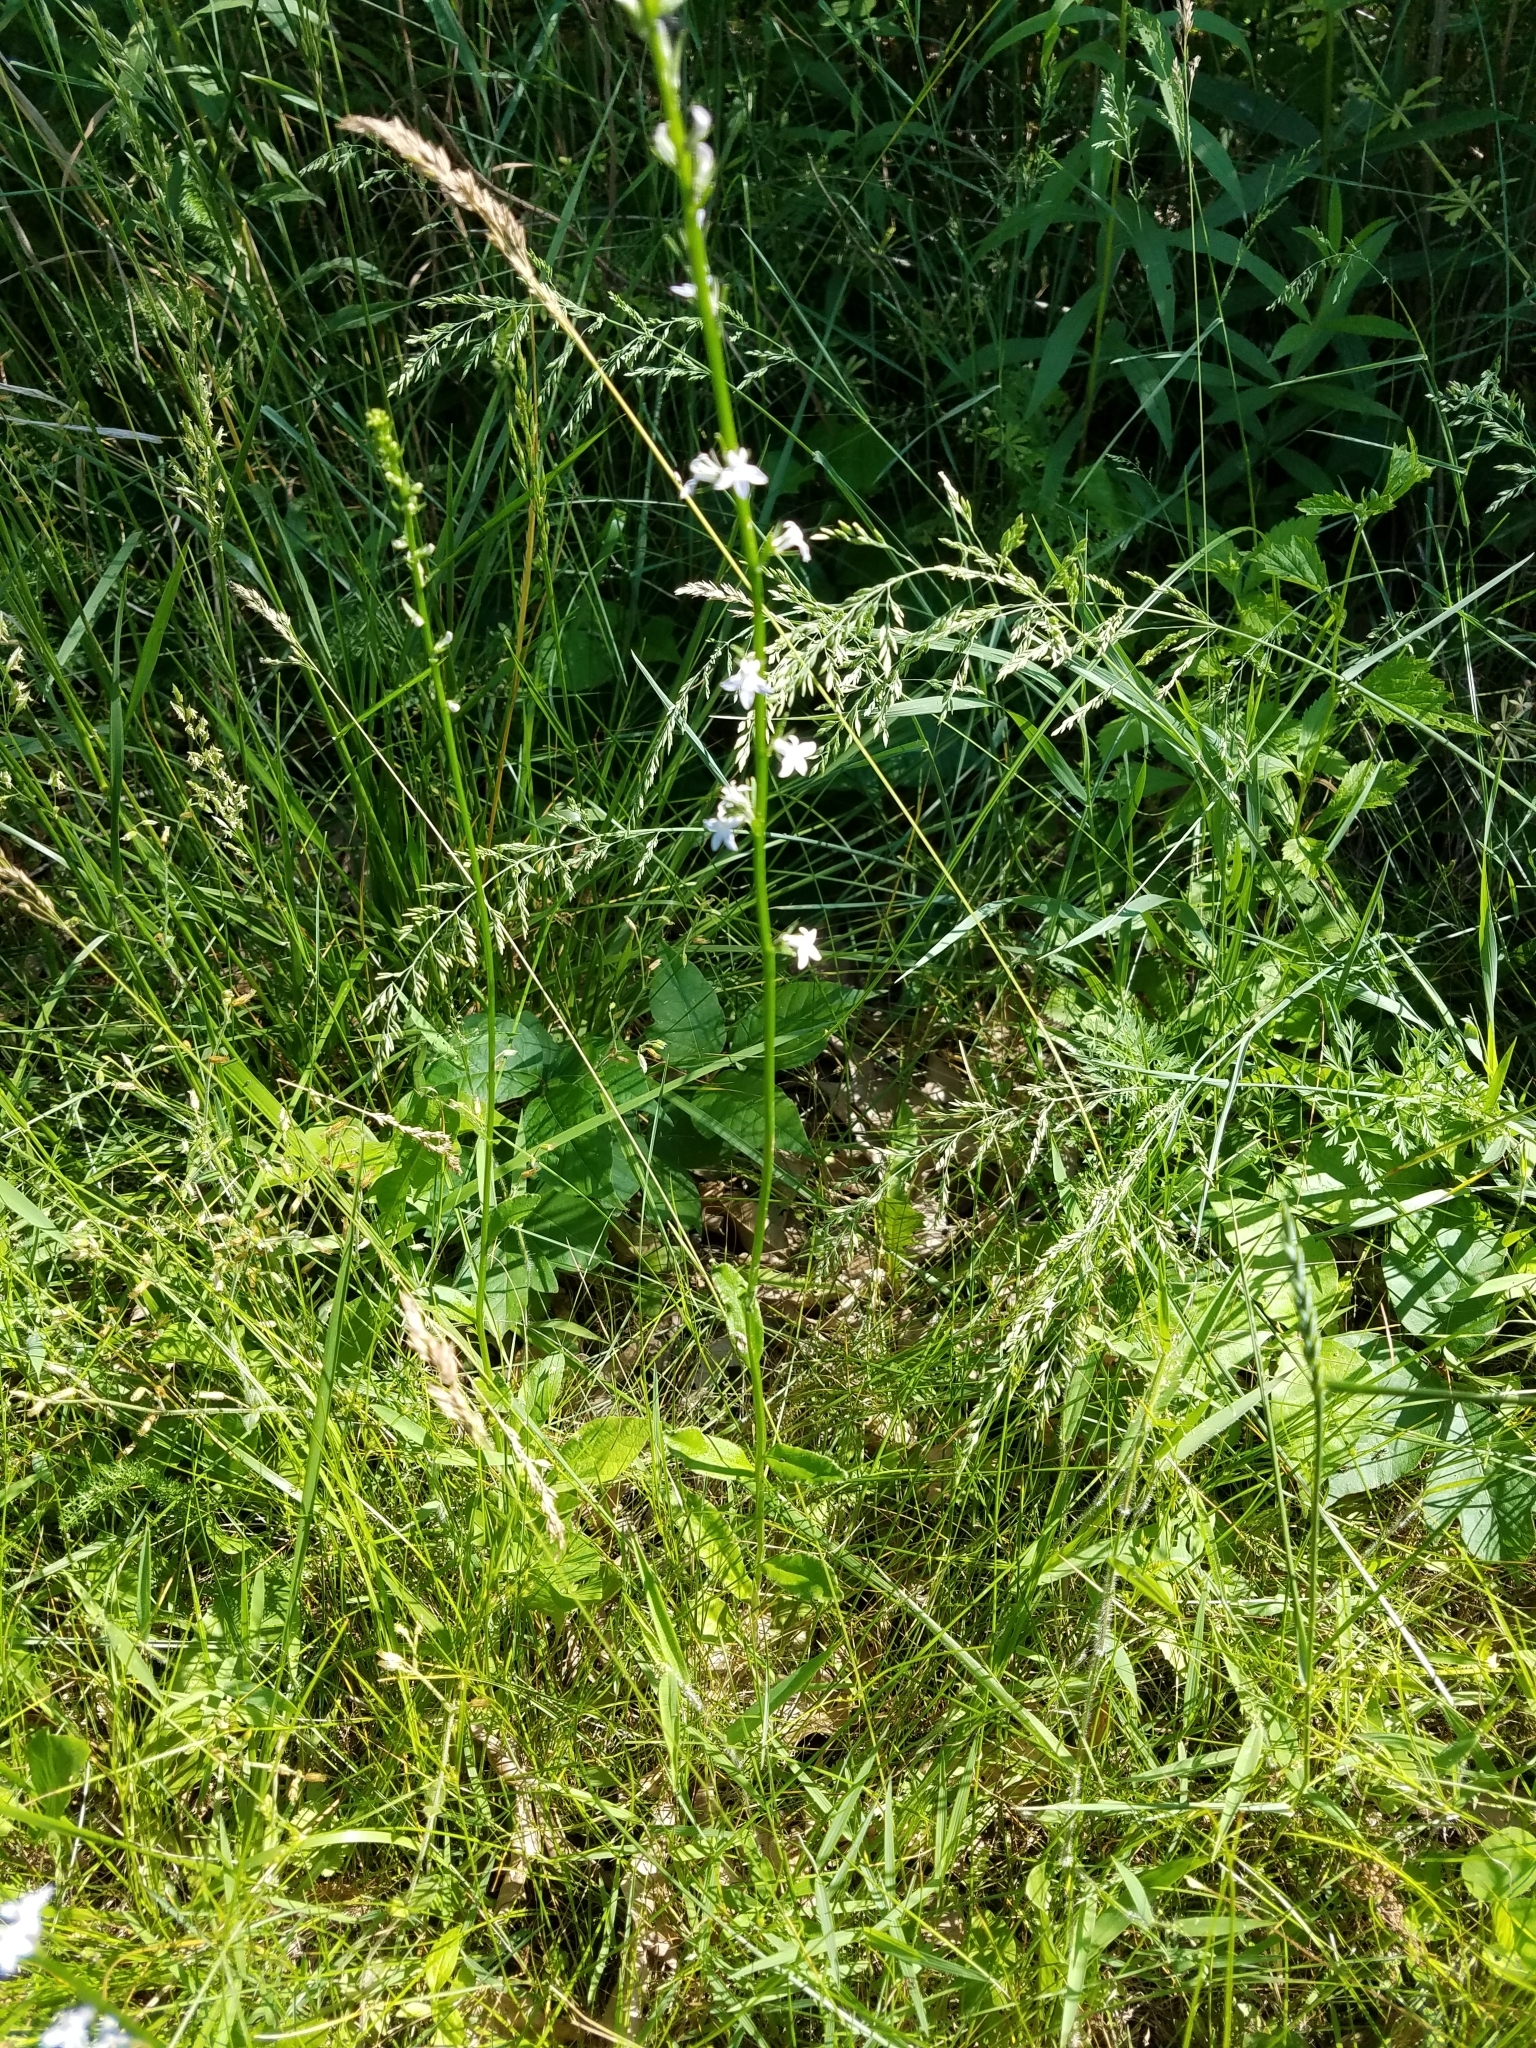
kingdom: Plantae
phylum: Tracheophyta
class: Magnoliopsida
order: Asterales
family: Campanulaceae
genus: Lobelia
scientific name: Lobelia spicata
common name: Pale-spike lobelia
